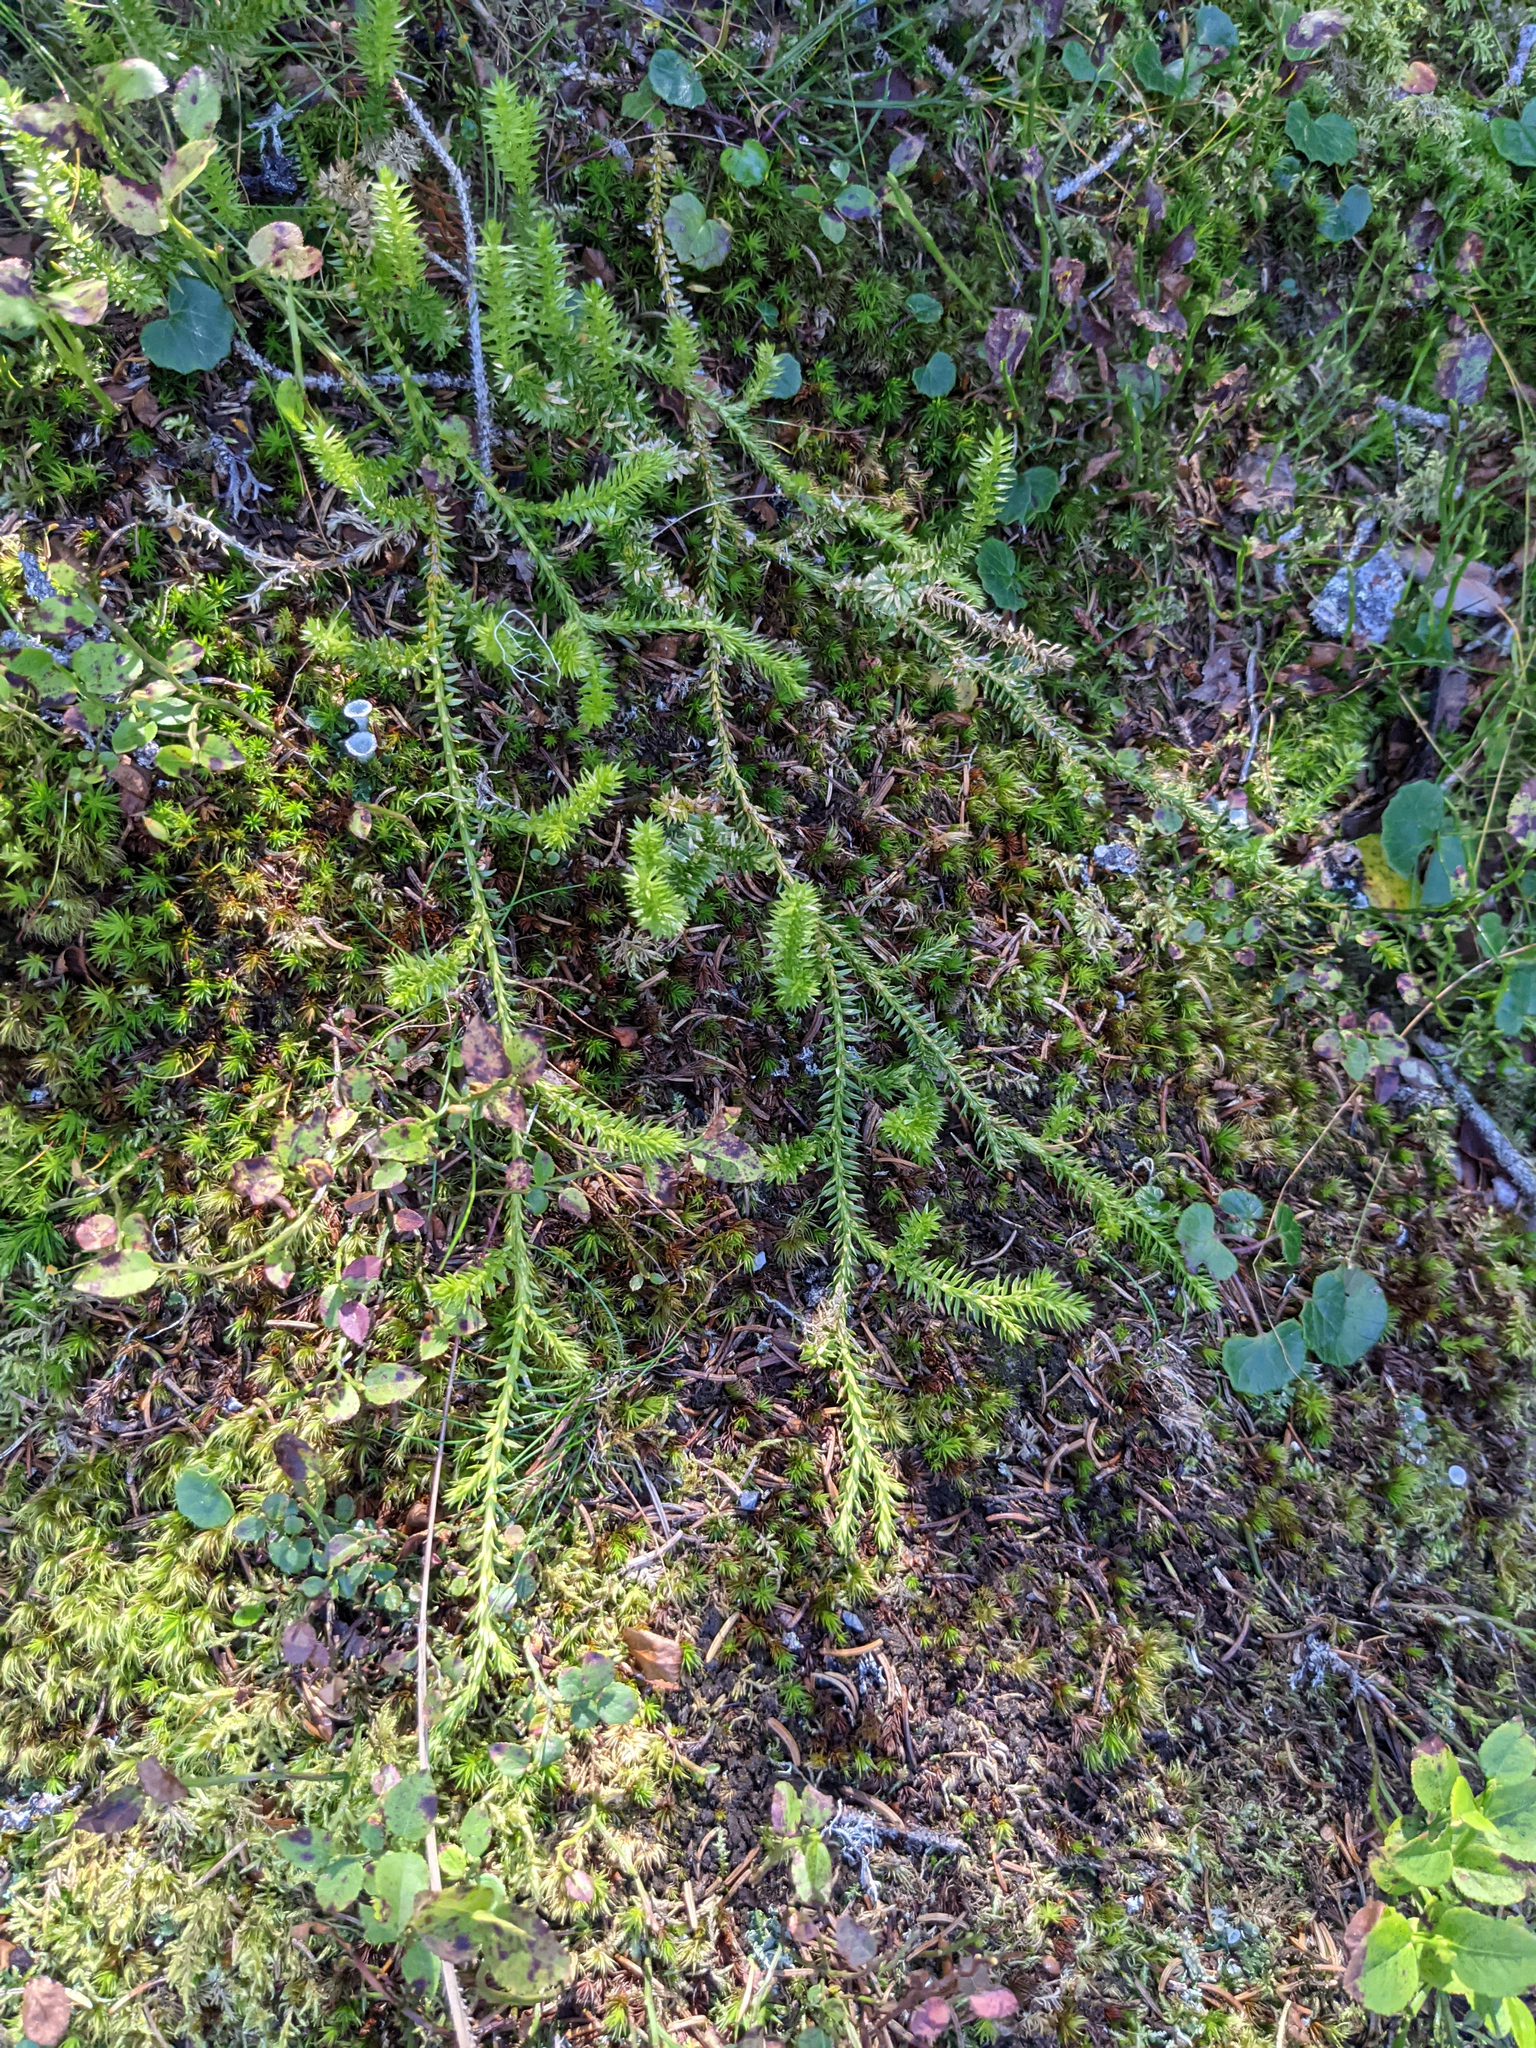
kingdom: Plantae
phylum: Tracheophyta
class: Lycopodiopsida
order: Lycopodiales
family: Lycopodiaceae
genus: Spinulum
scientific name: Spinulum annotinum
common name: Interrupted club-moss
